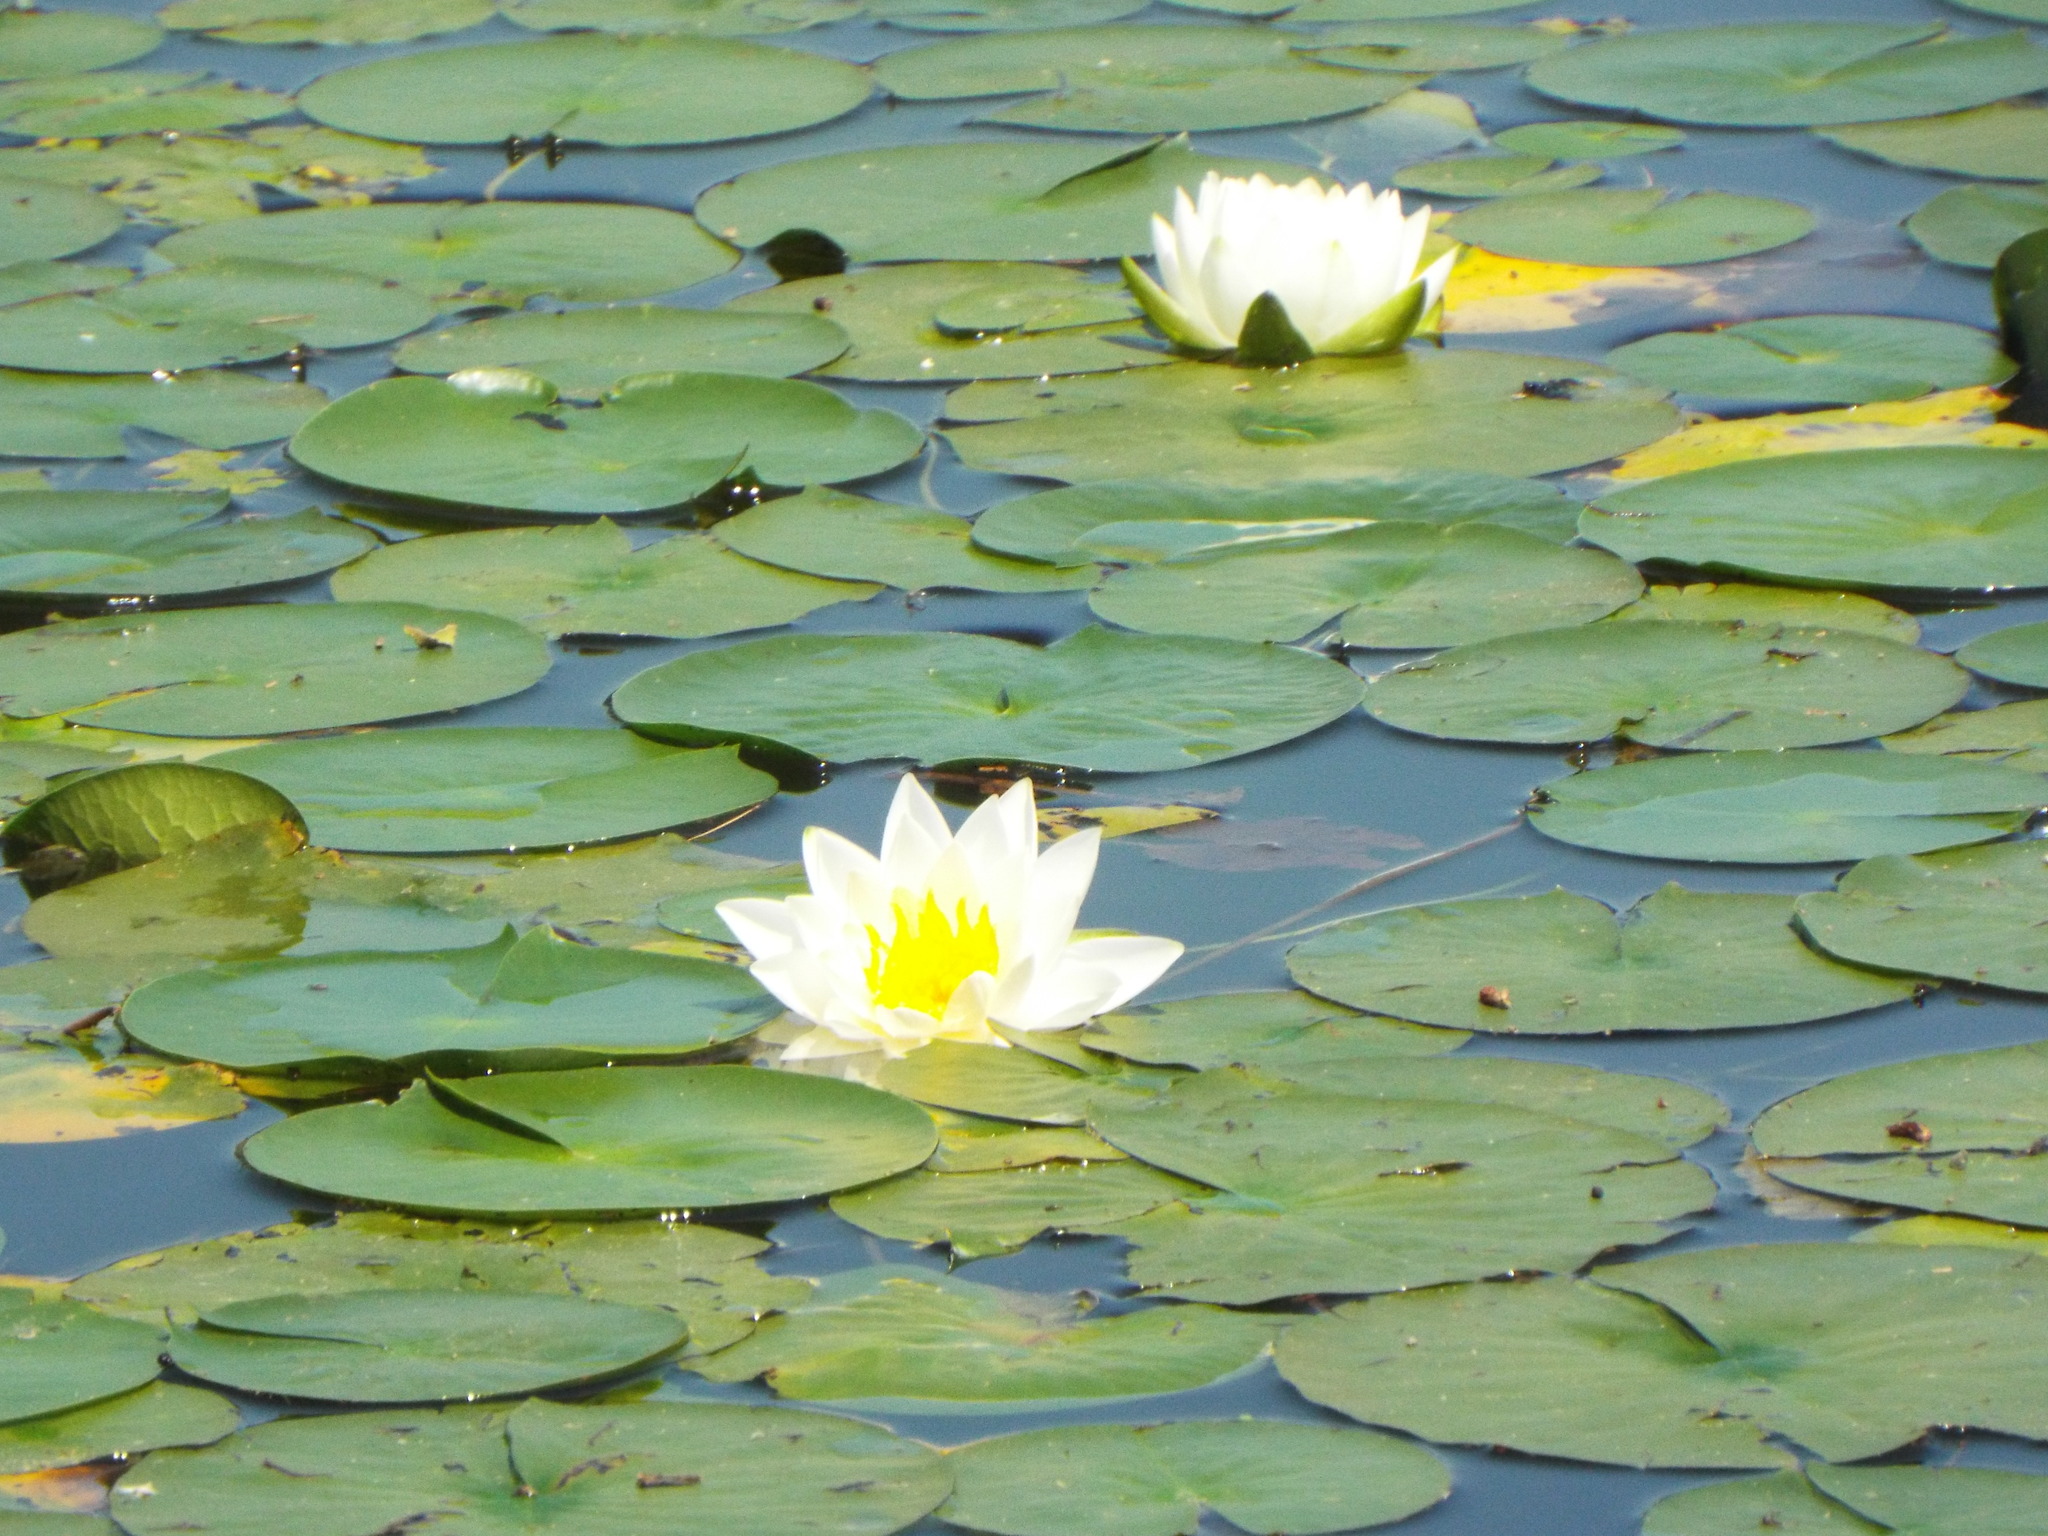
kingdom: Plantae
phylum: Tracheophyta
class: Magnoliopsida
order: Nymphaeales
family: Nymphaeaceae
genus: Nymphaea
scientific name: Nymphaea odorata
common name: Fragrant water-lily
